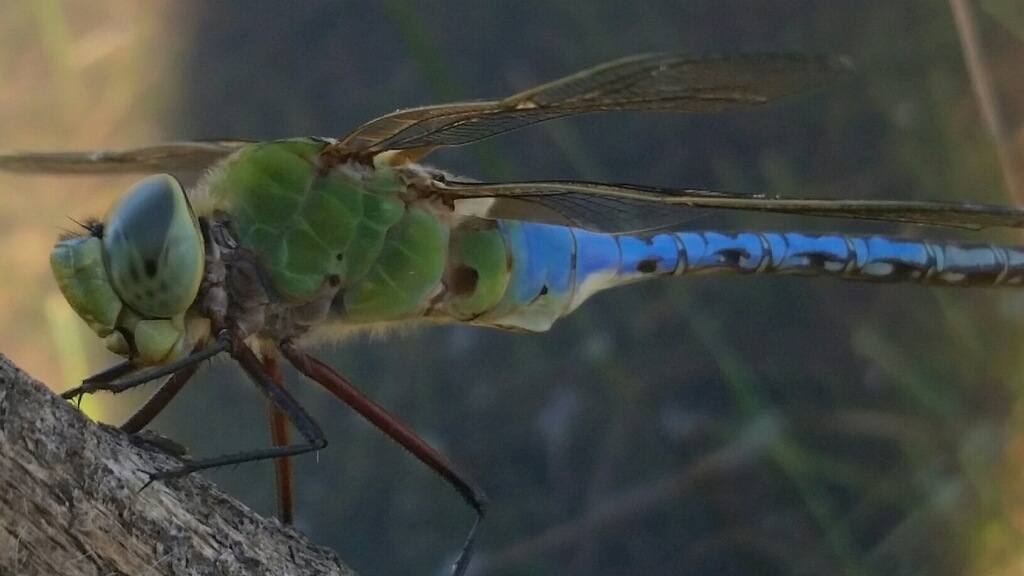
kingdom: Animalia
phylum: Arthropoda
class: Insecta
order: Odonata
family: Aeshnidae
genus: Anax
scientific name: Anax junius
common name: Common green darner
